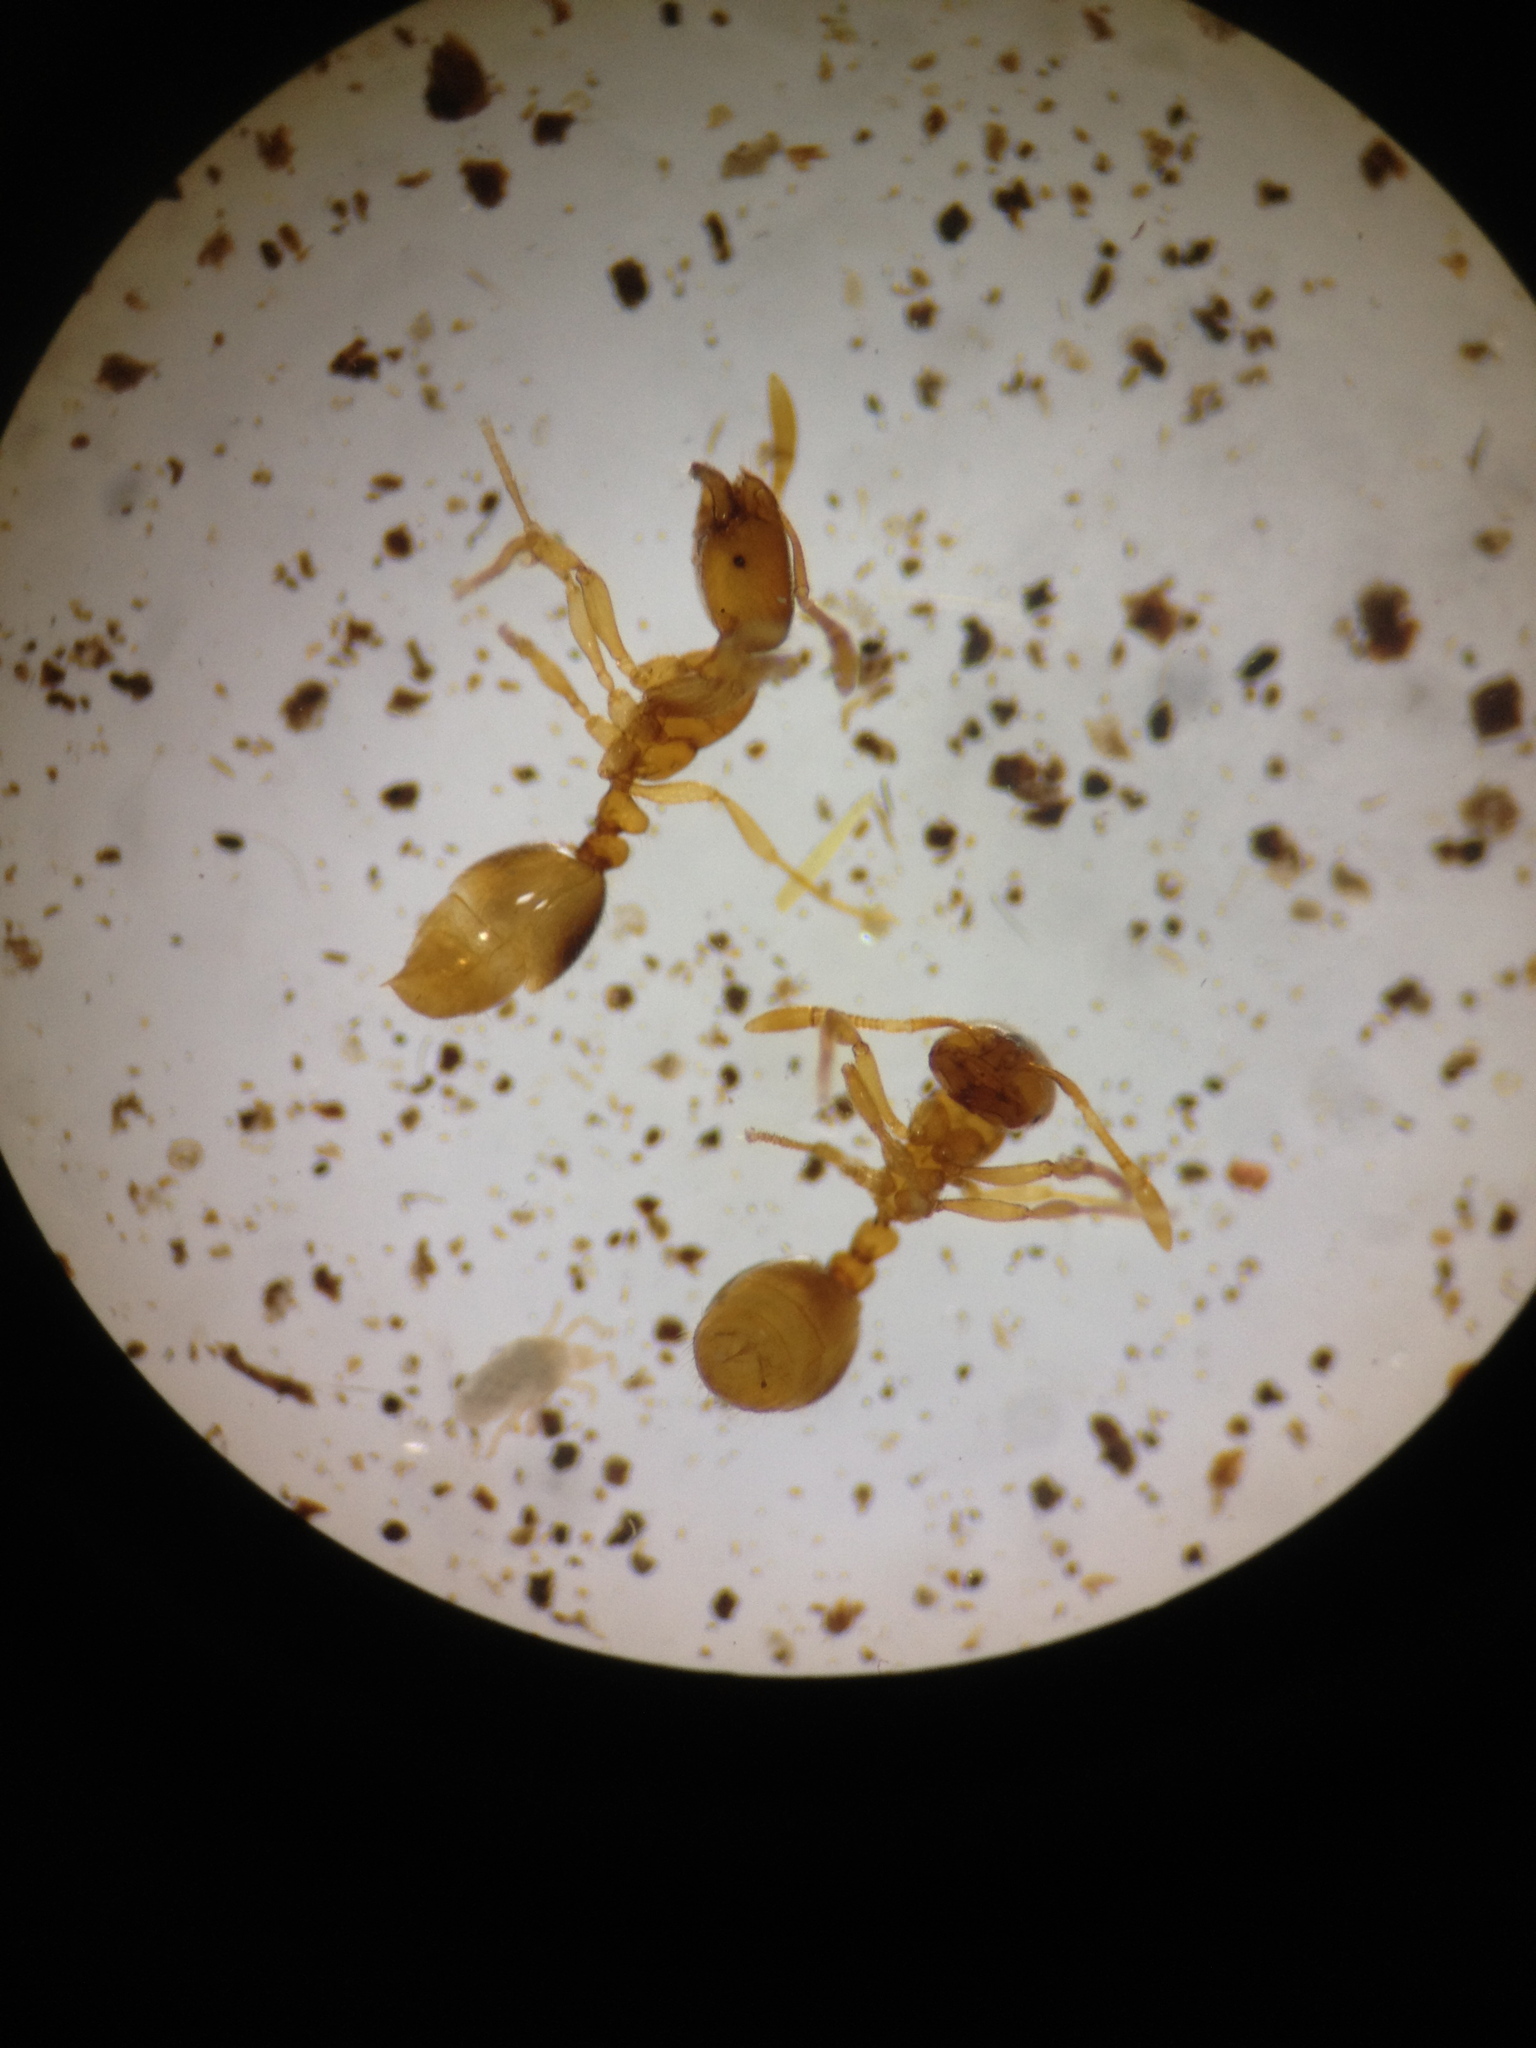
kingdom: Animalia
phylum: Arthropoda
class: Insecta
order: Hymenoptera
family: Formicidae
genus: Solenopsis
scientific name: Solenopsis fugax
